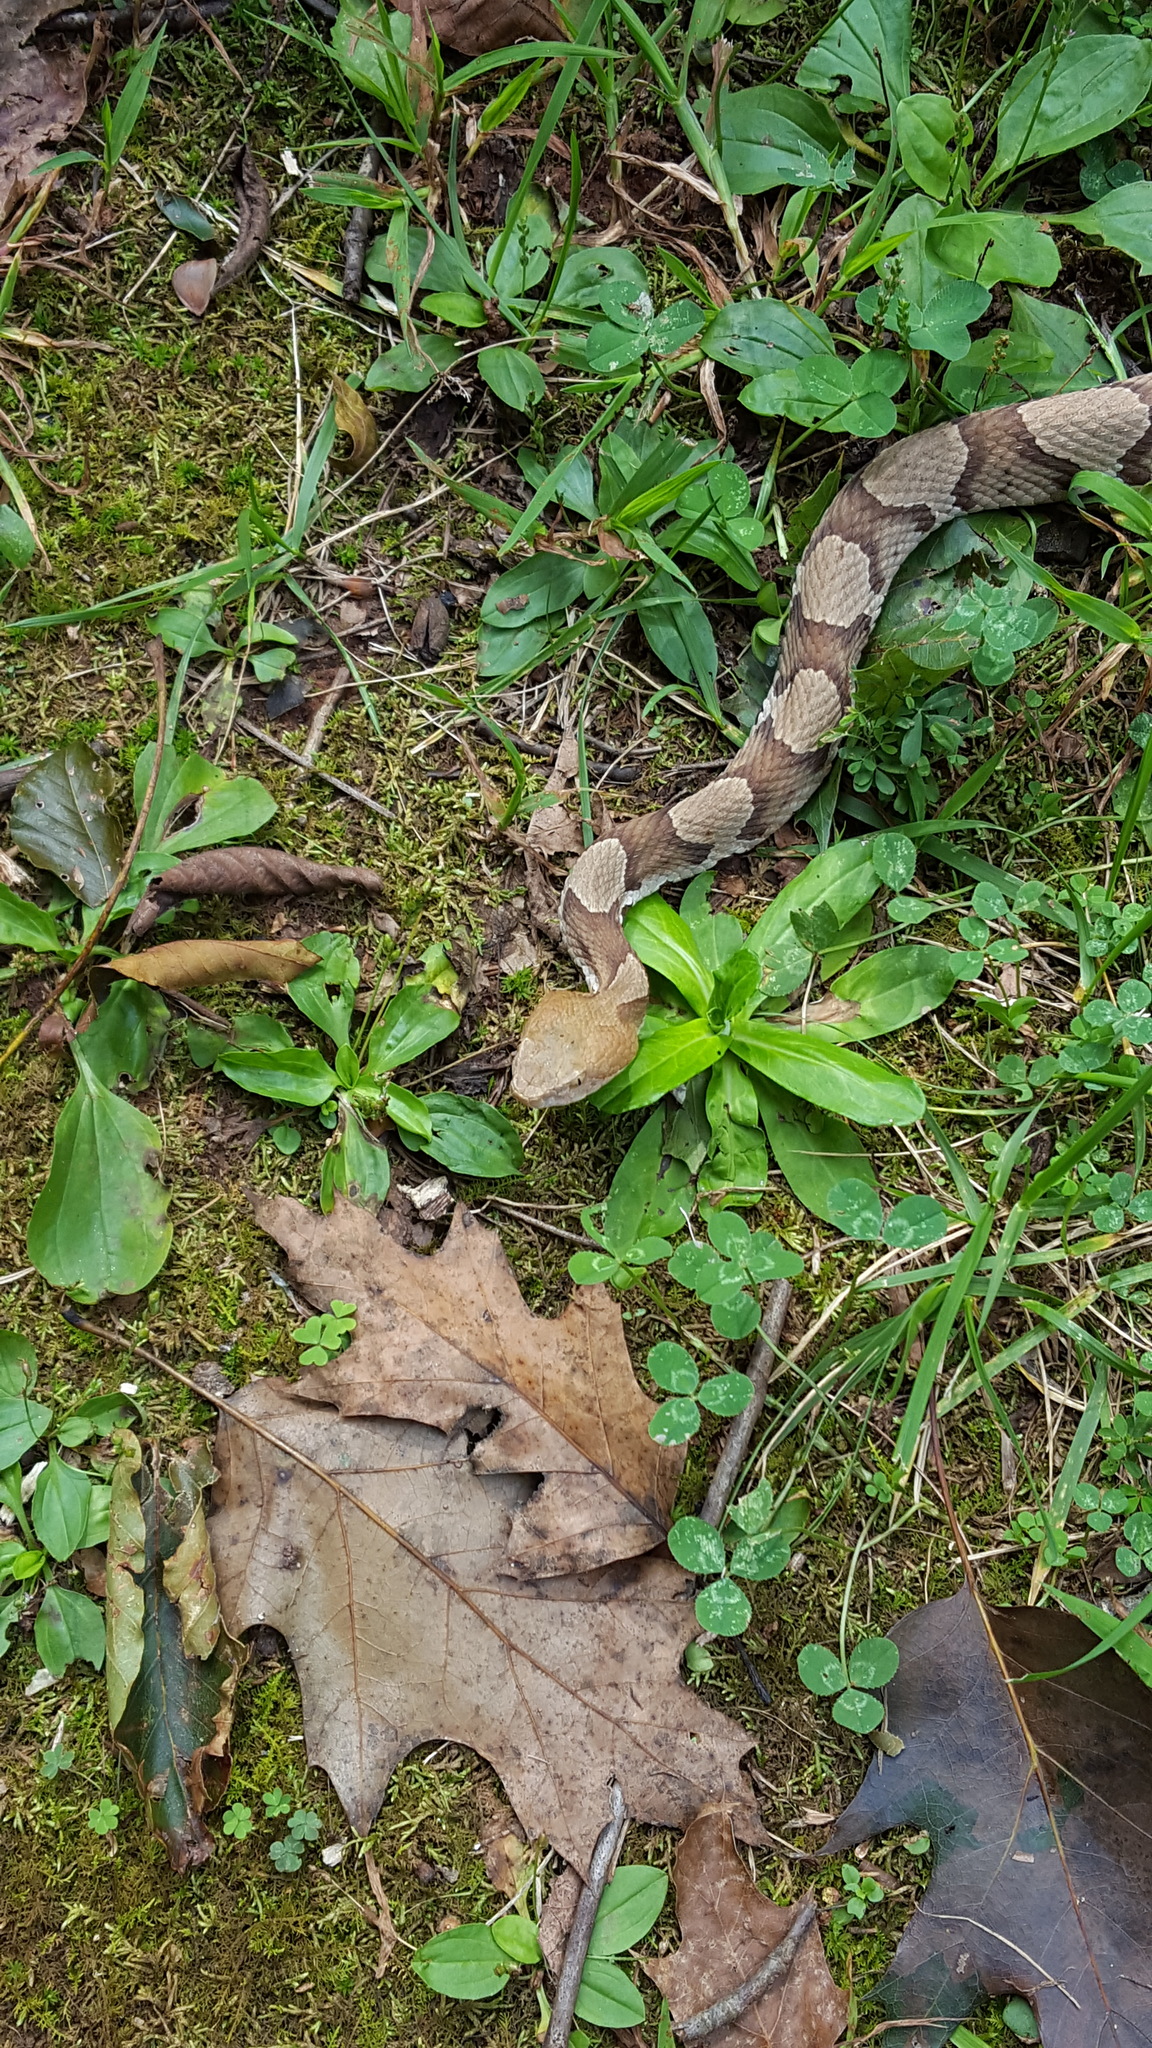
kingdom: Animalia
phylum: Chordata
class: Squamata
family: Viperidae
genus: Agkistrodon
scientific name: Agkistrodon contortrix
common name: Northern copperhead
